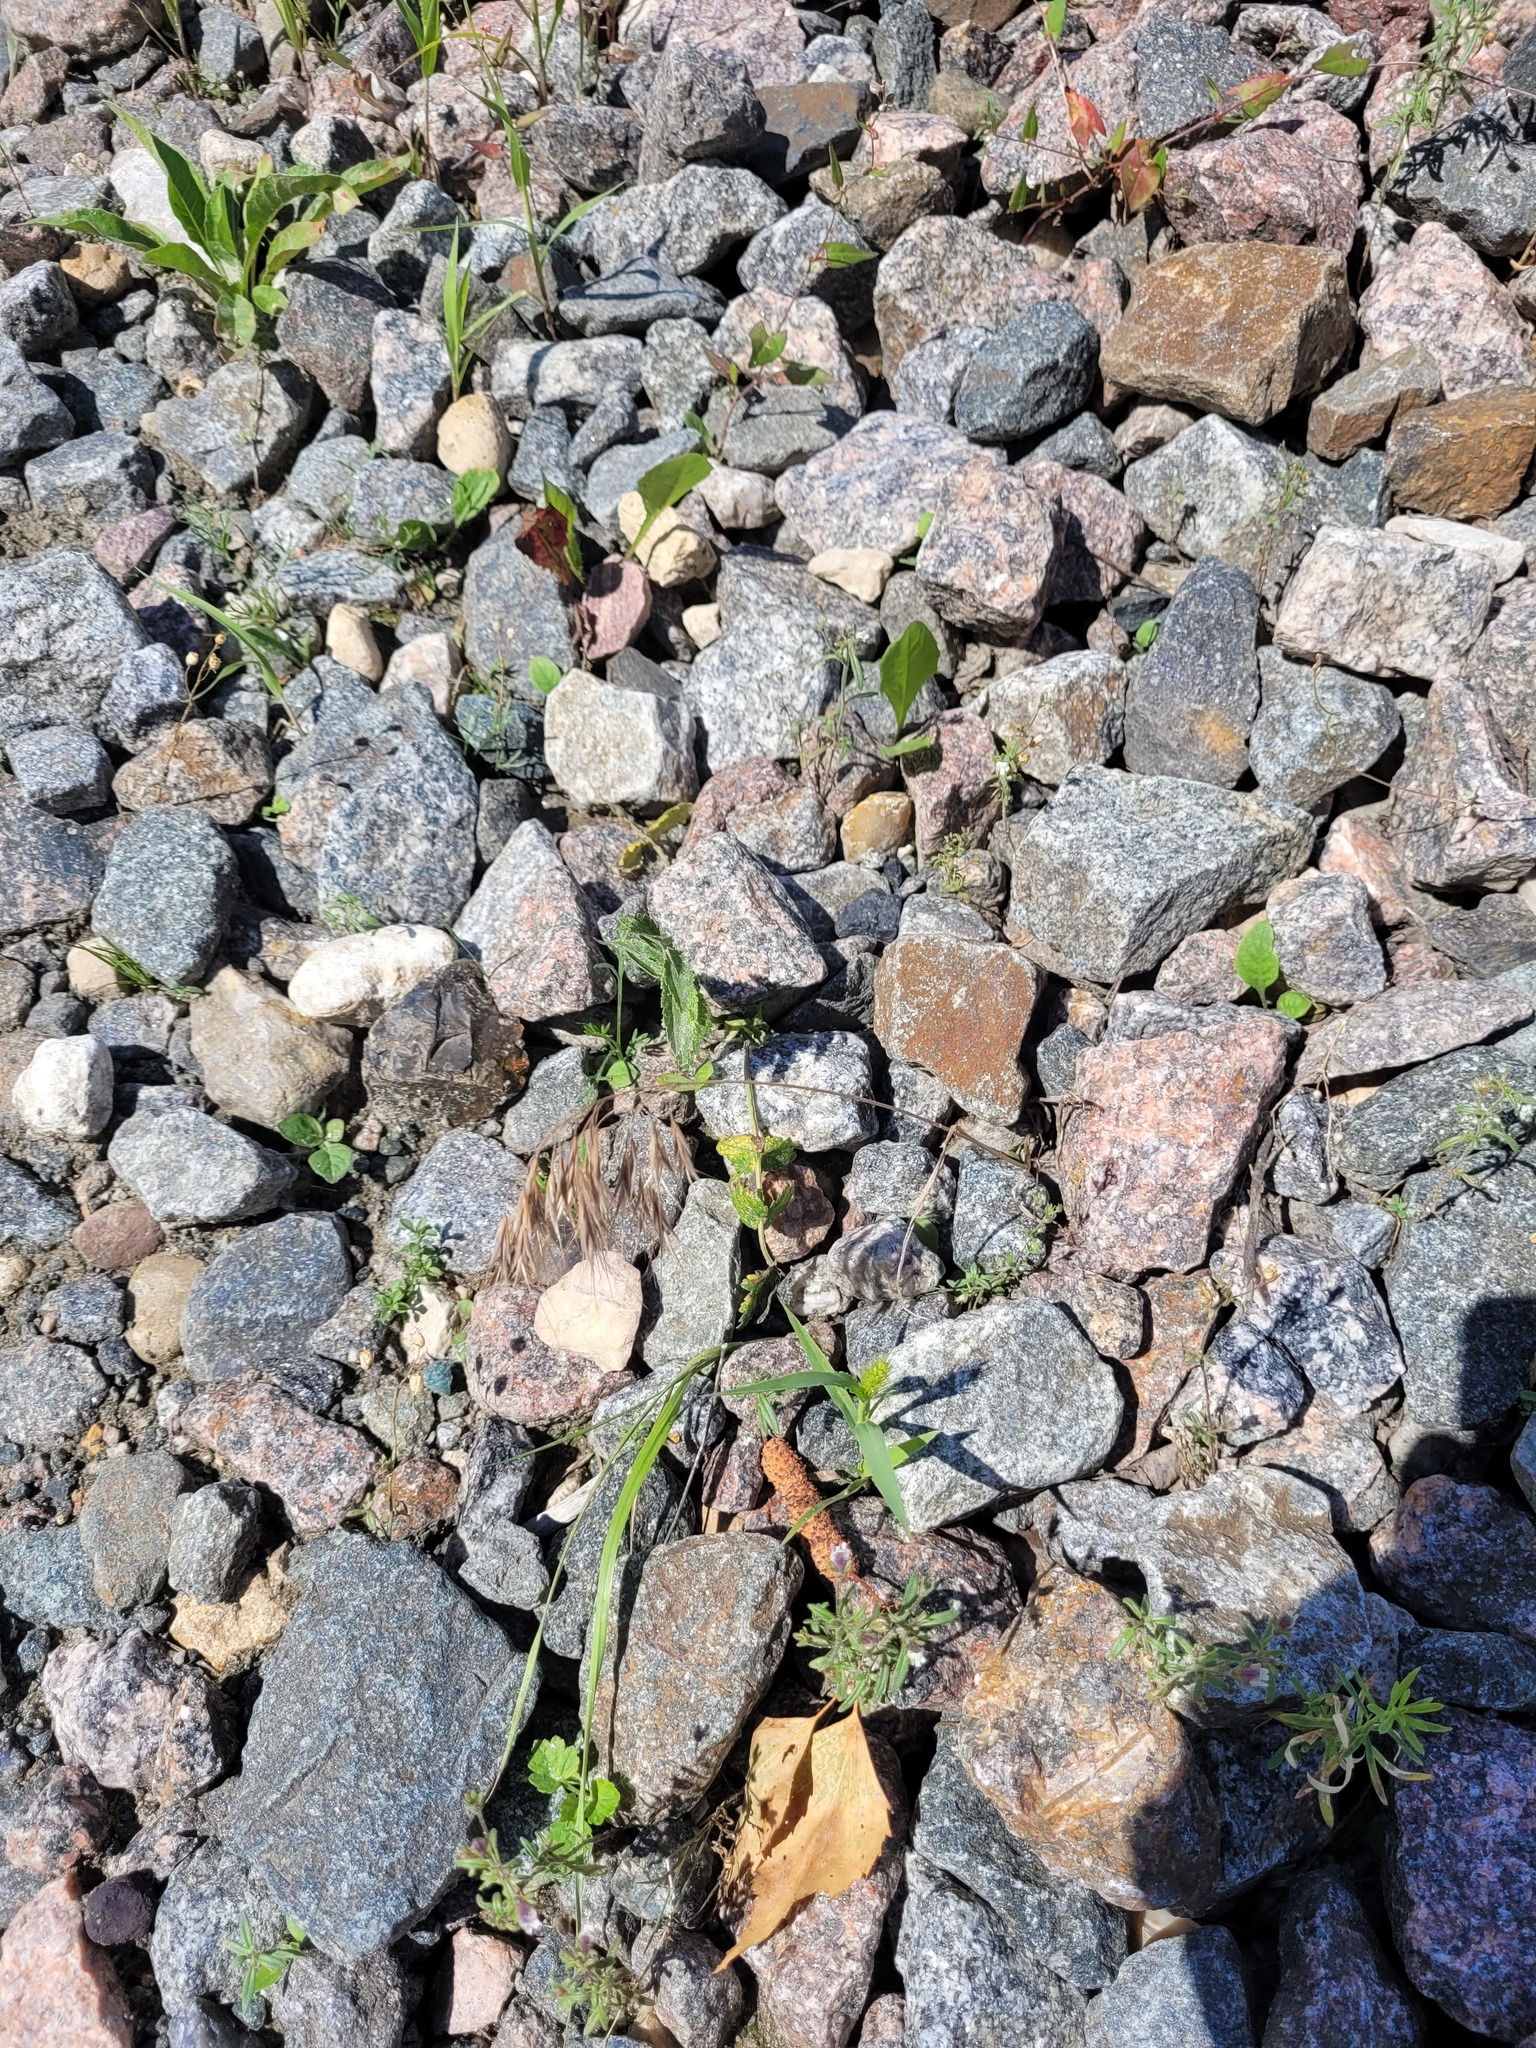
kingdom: Plantae
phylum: Tracheophyta
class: Liliopsida
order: Poales
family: Poaceae
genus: Bromus
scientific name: Bromus tectorum
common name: Cheatgrass
